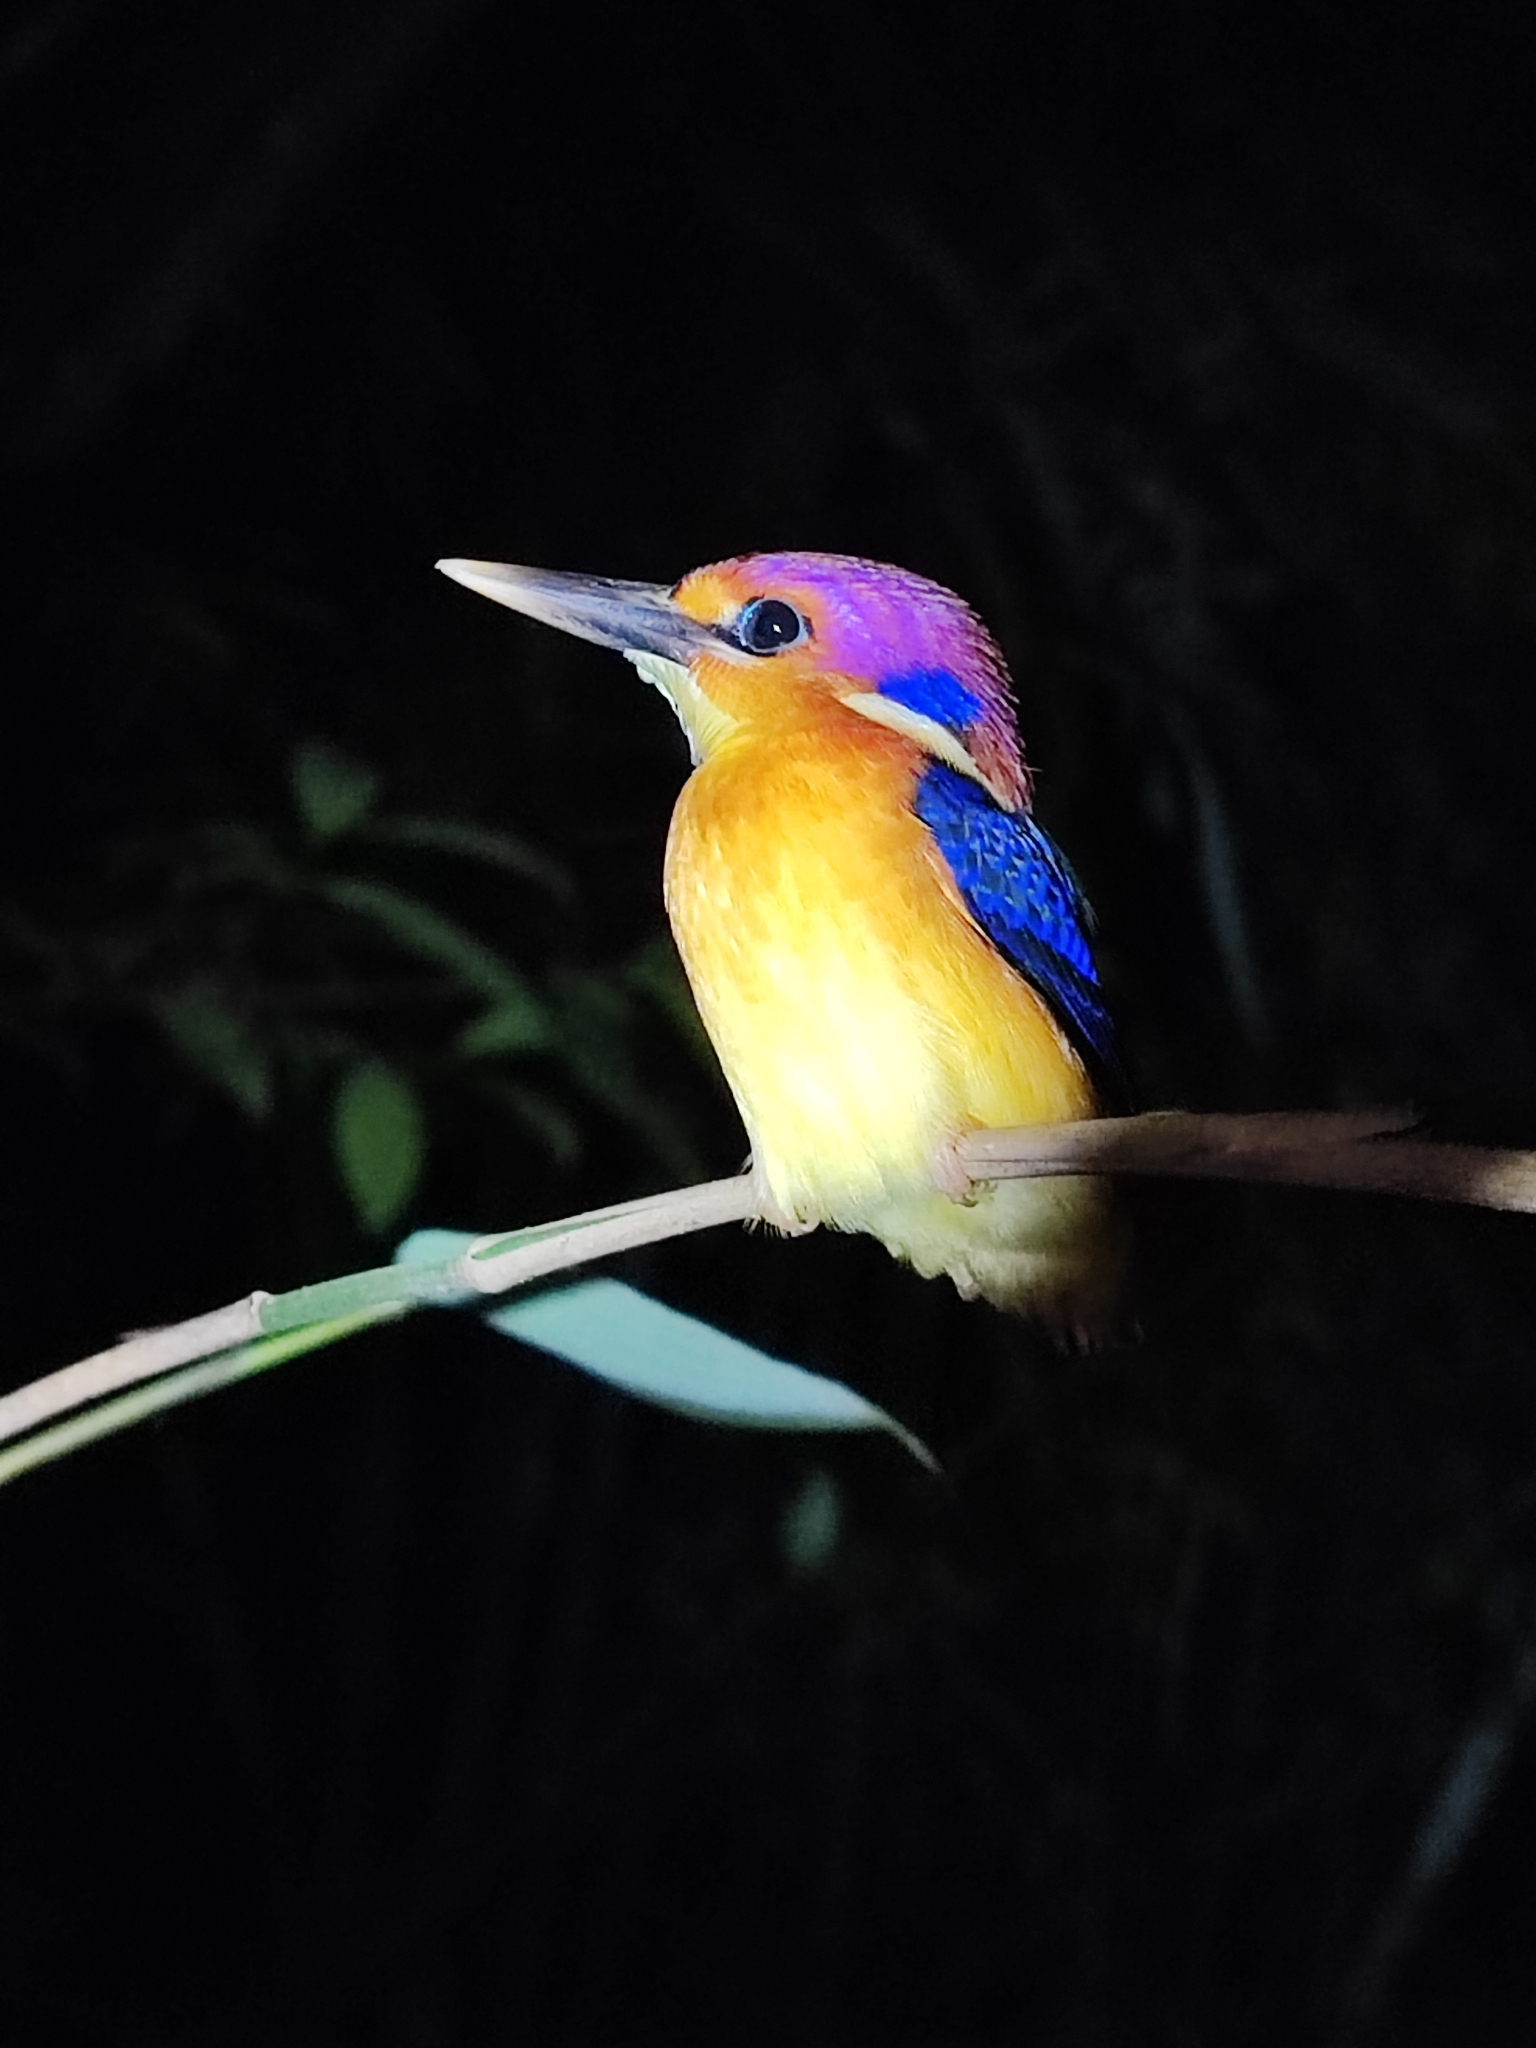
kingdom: Animalia
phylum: Chordata
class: Aves
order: Coraciiformes
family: Alcedinidae
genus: Ceyx
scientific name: Ceyx erithaca
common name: Oriental dwarf kingfisher
